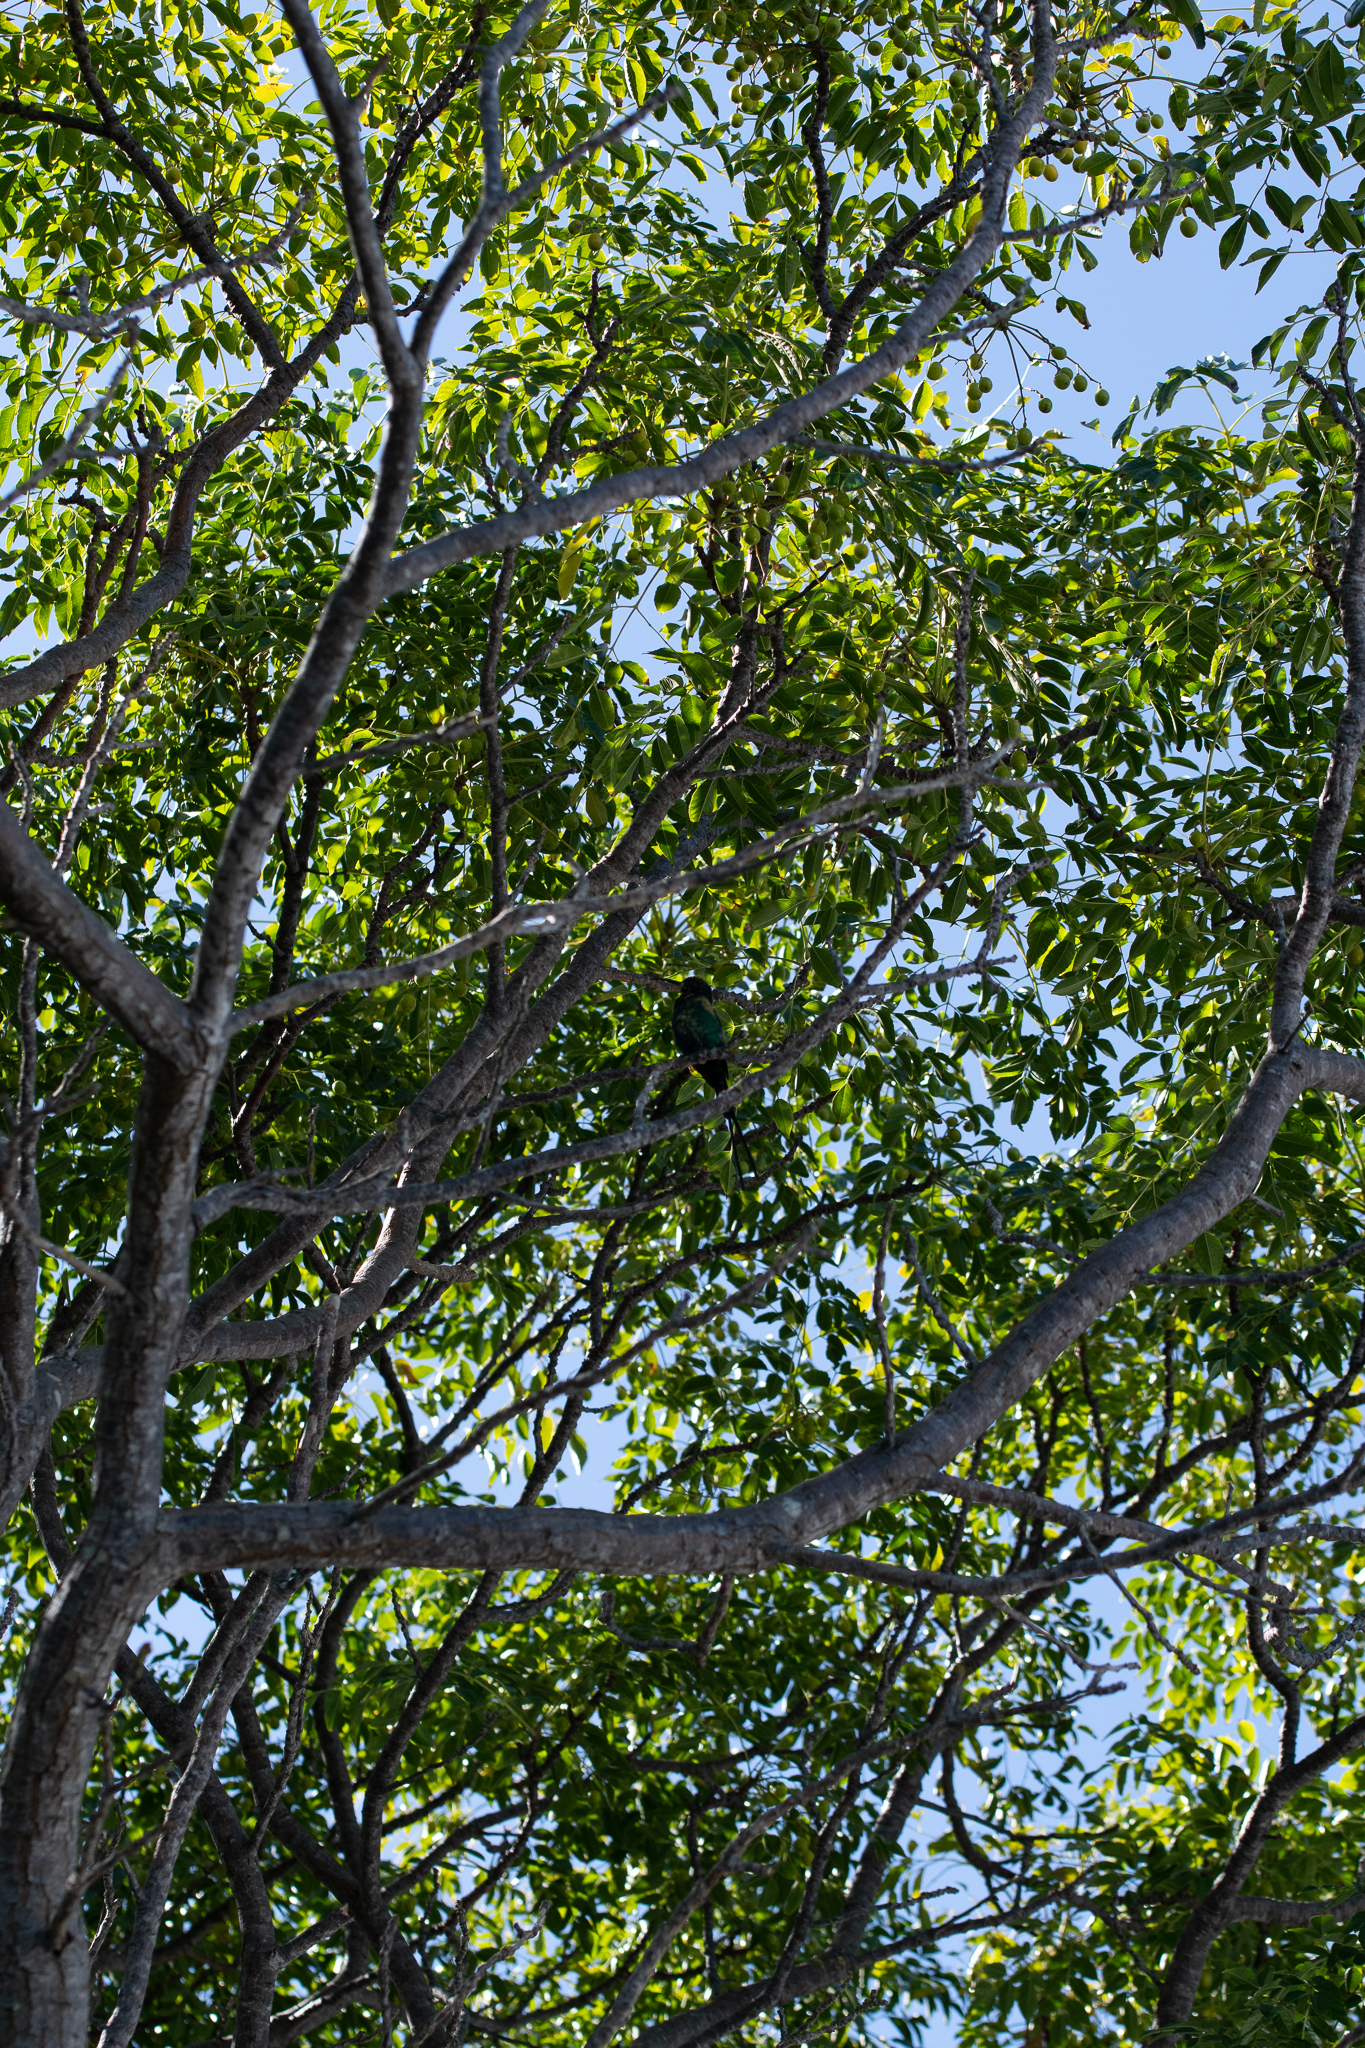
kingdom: Plantae
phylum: Tracheophyta
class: Magnoliopsida
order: Sapindales
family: Meliaceae
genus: Melia
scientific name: Melia azedarach
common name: Chinaberrytree
